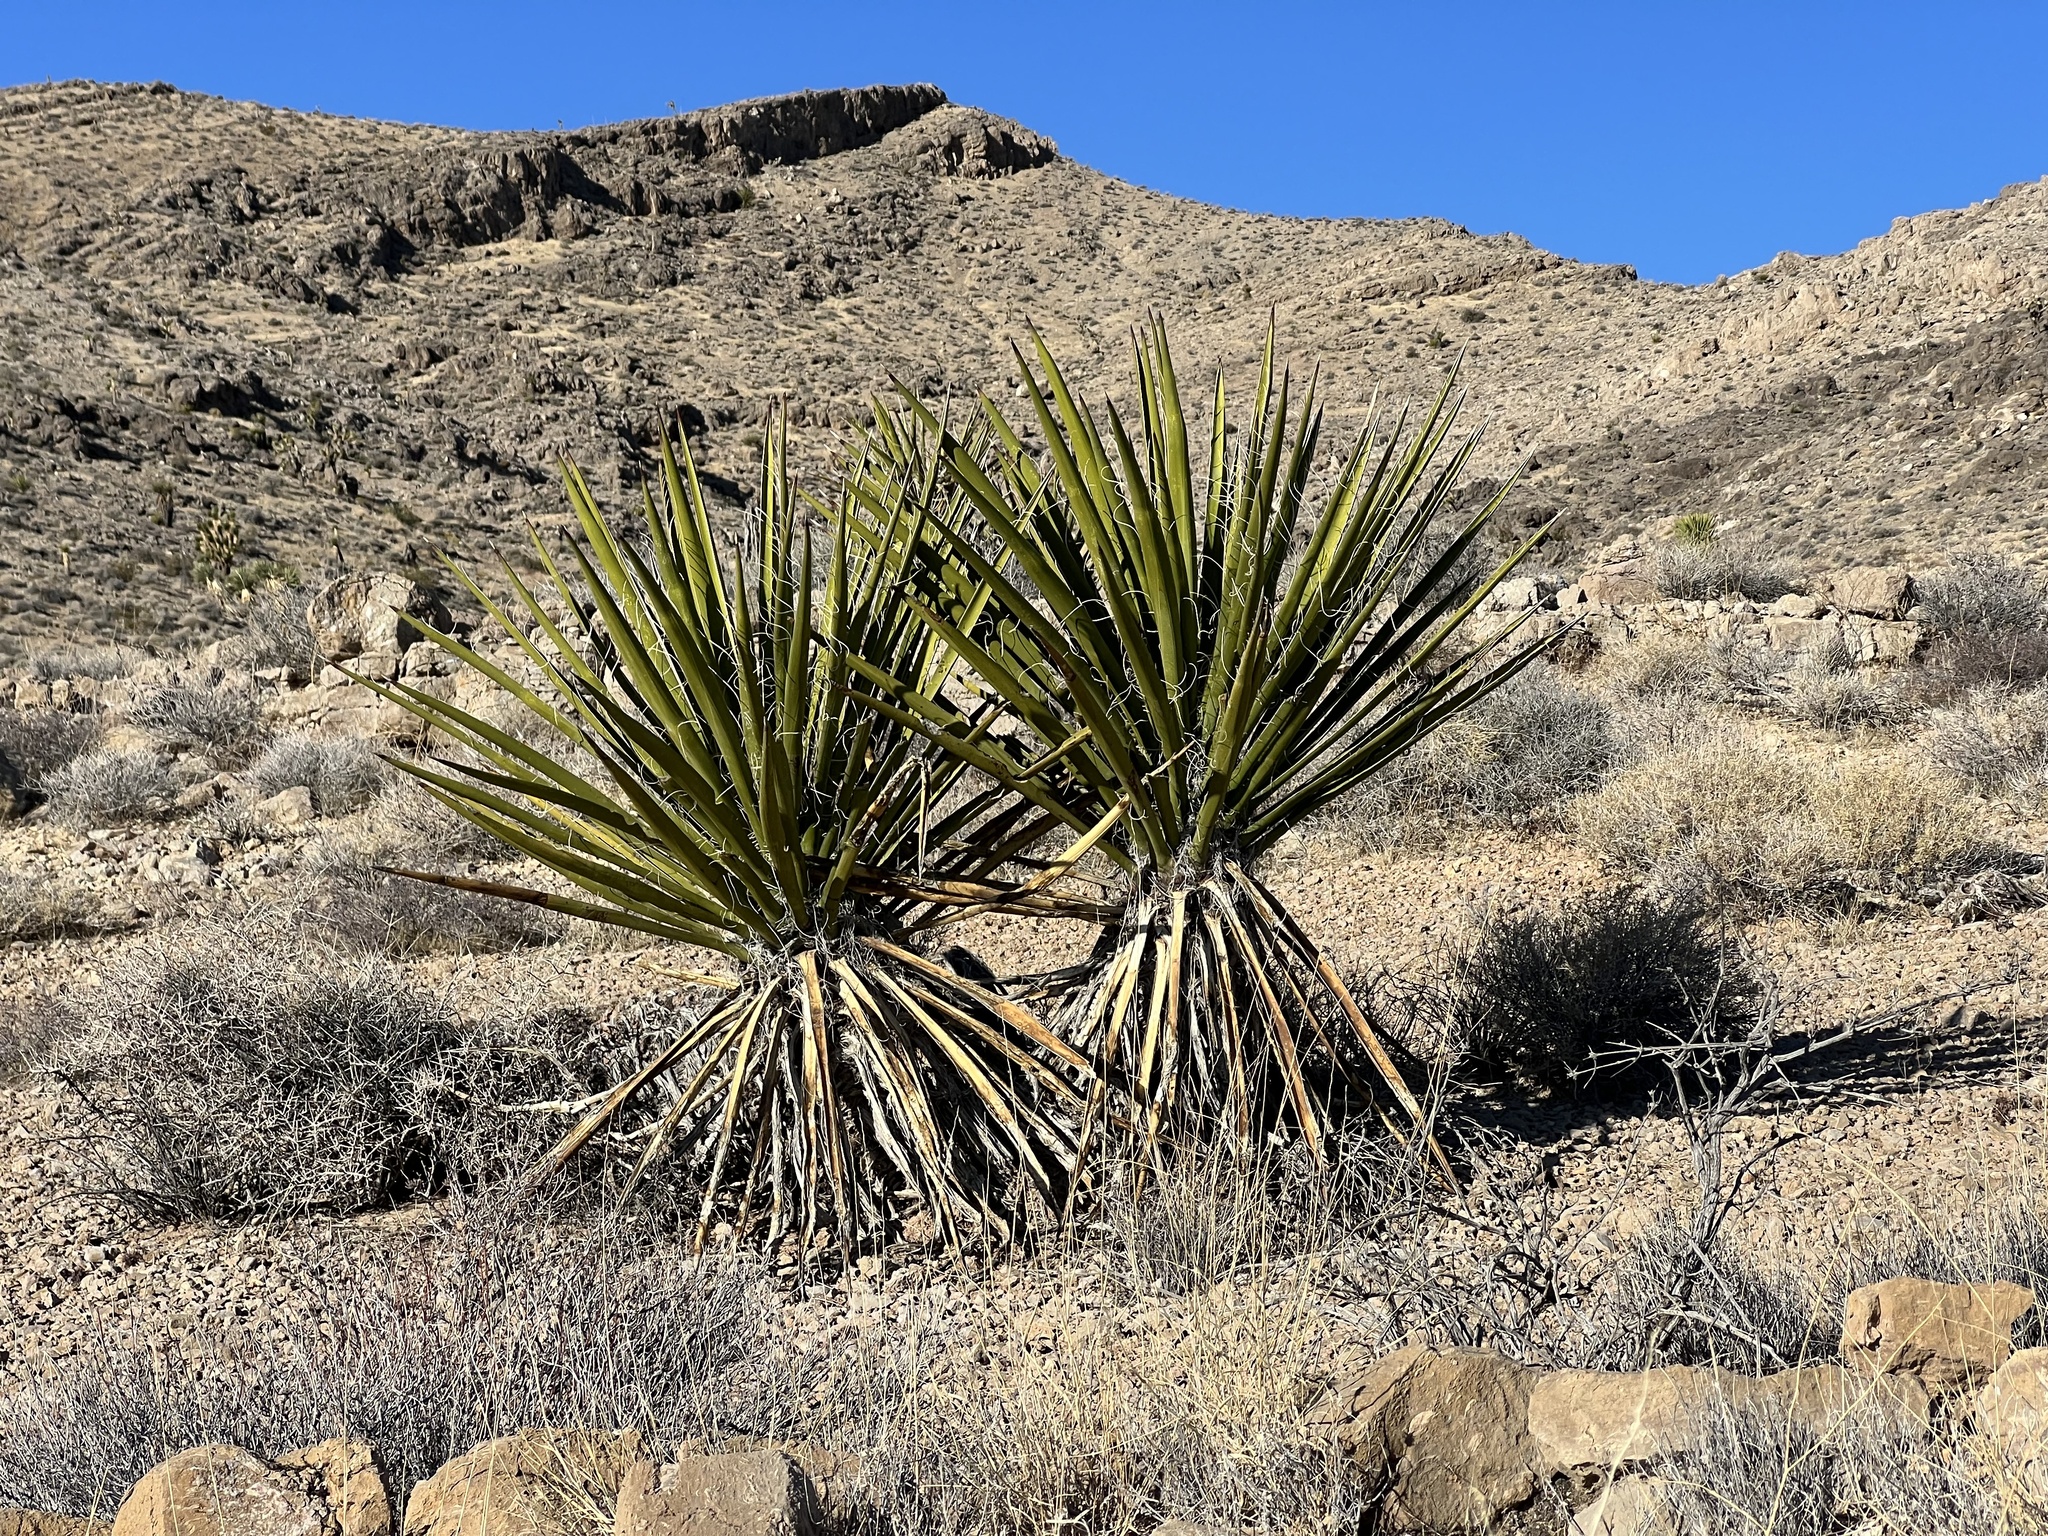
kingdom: Plantae
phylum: Tracheophyta
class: Liliopsida
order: Asparagales
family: Asparagaceae
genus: Yucca
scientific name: Yucca schidigera
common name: Mojave yucca
